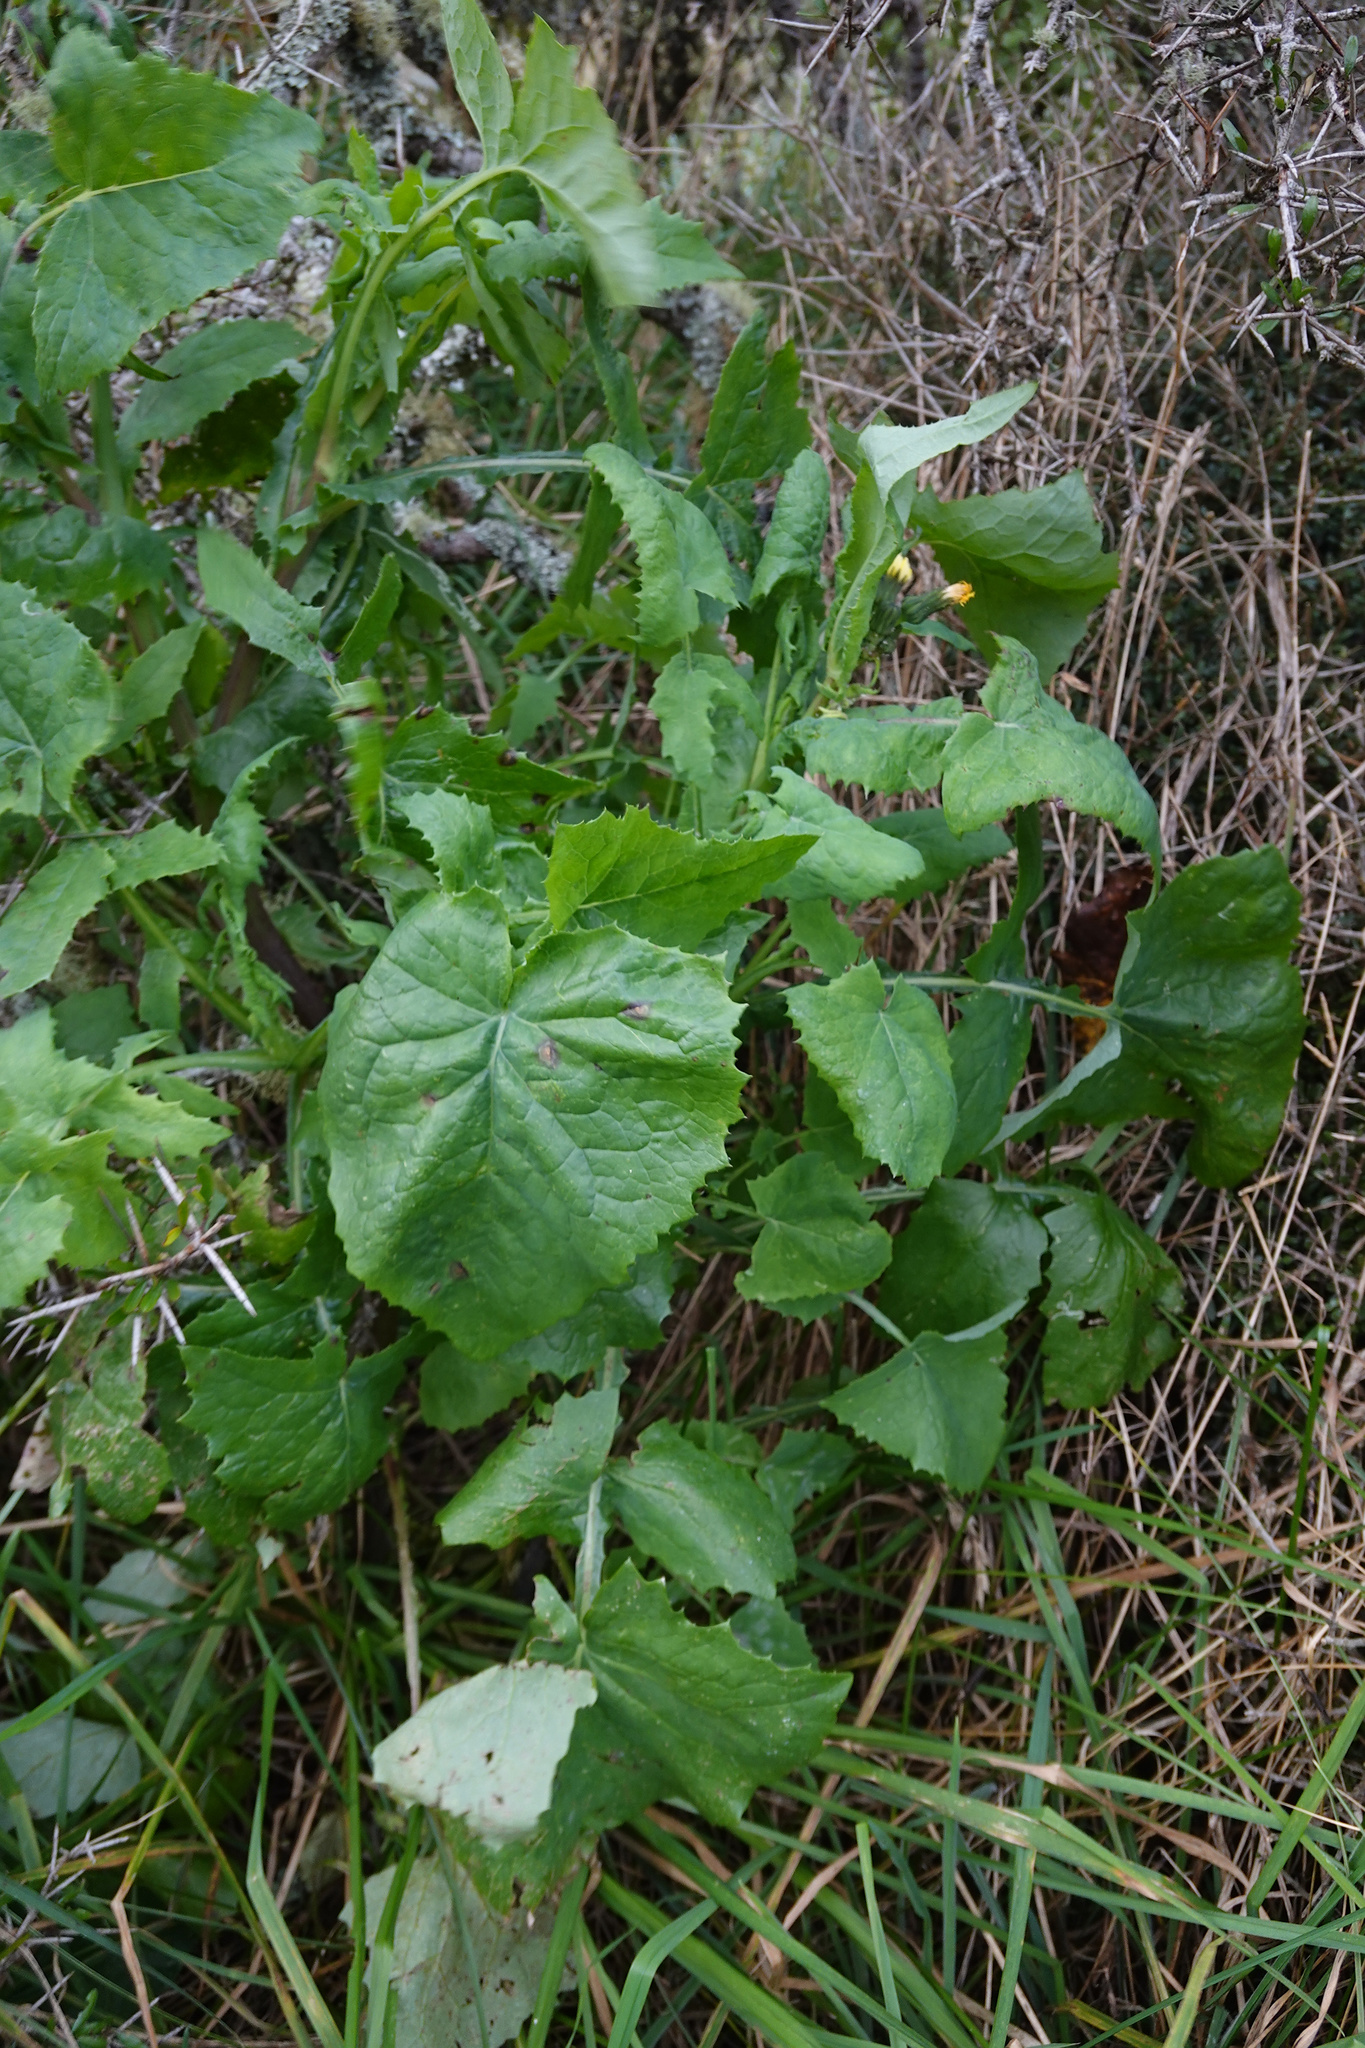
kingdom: Plantae
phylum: Tracheophyta
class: Magnoliopsida
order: Asterales
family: Asteraceae
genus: Sonchus
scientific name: Sonchus oleraceus
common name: Common sowthistle
